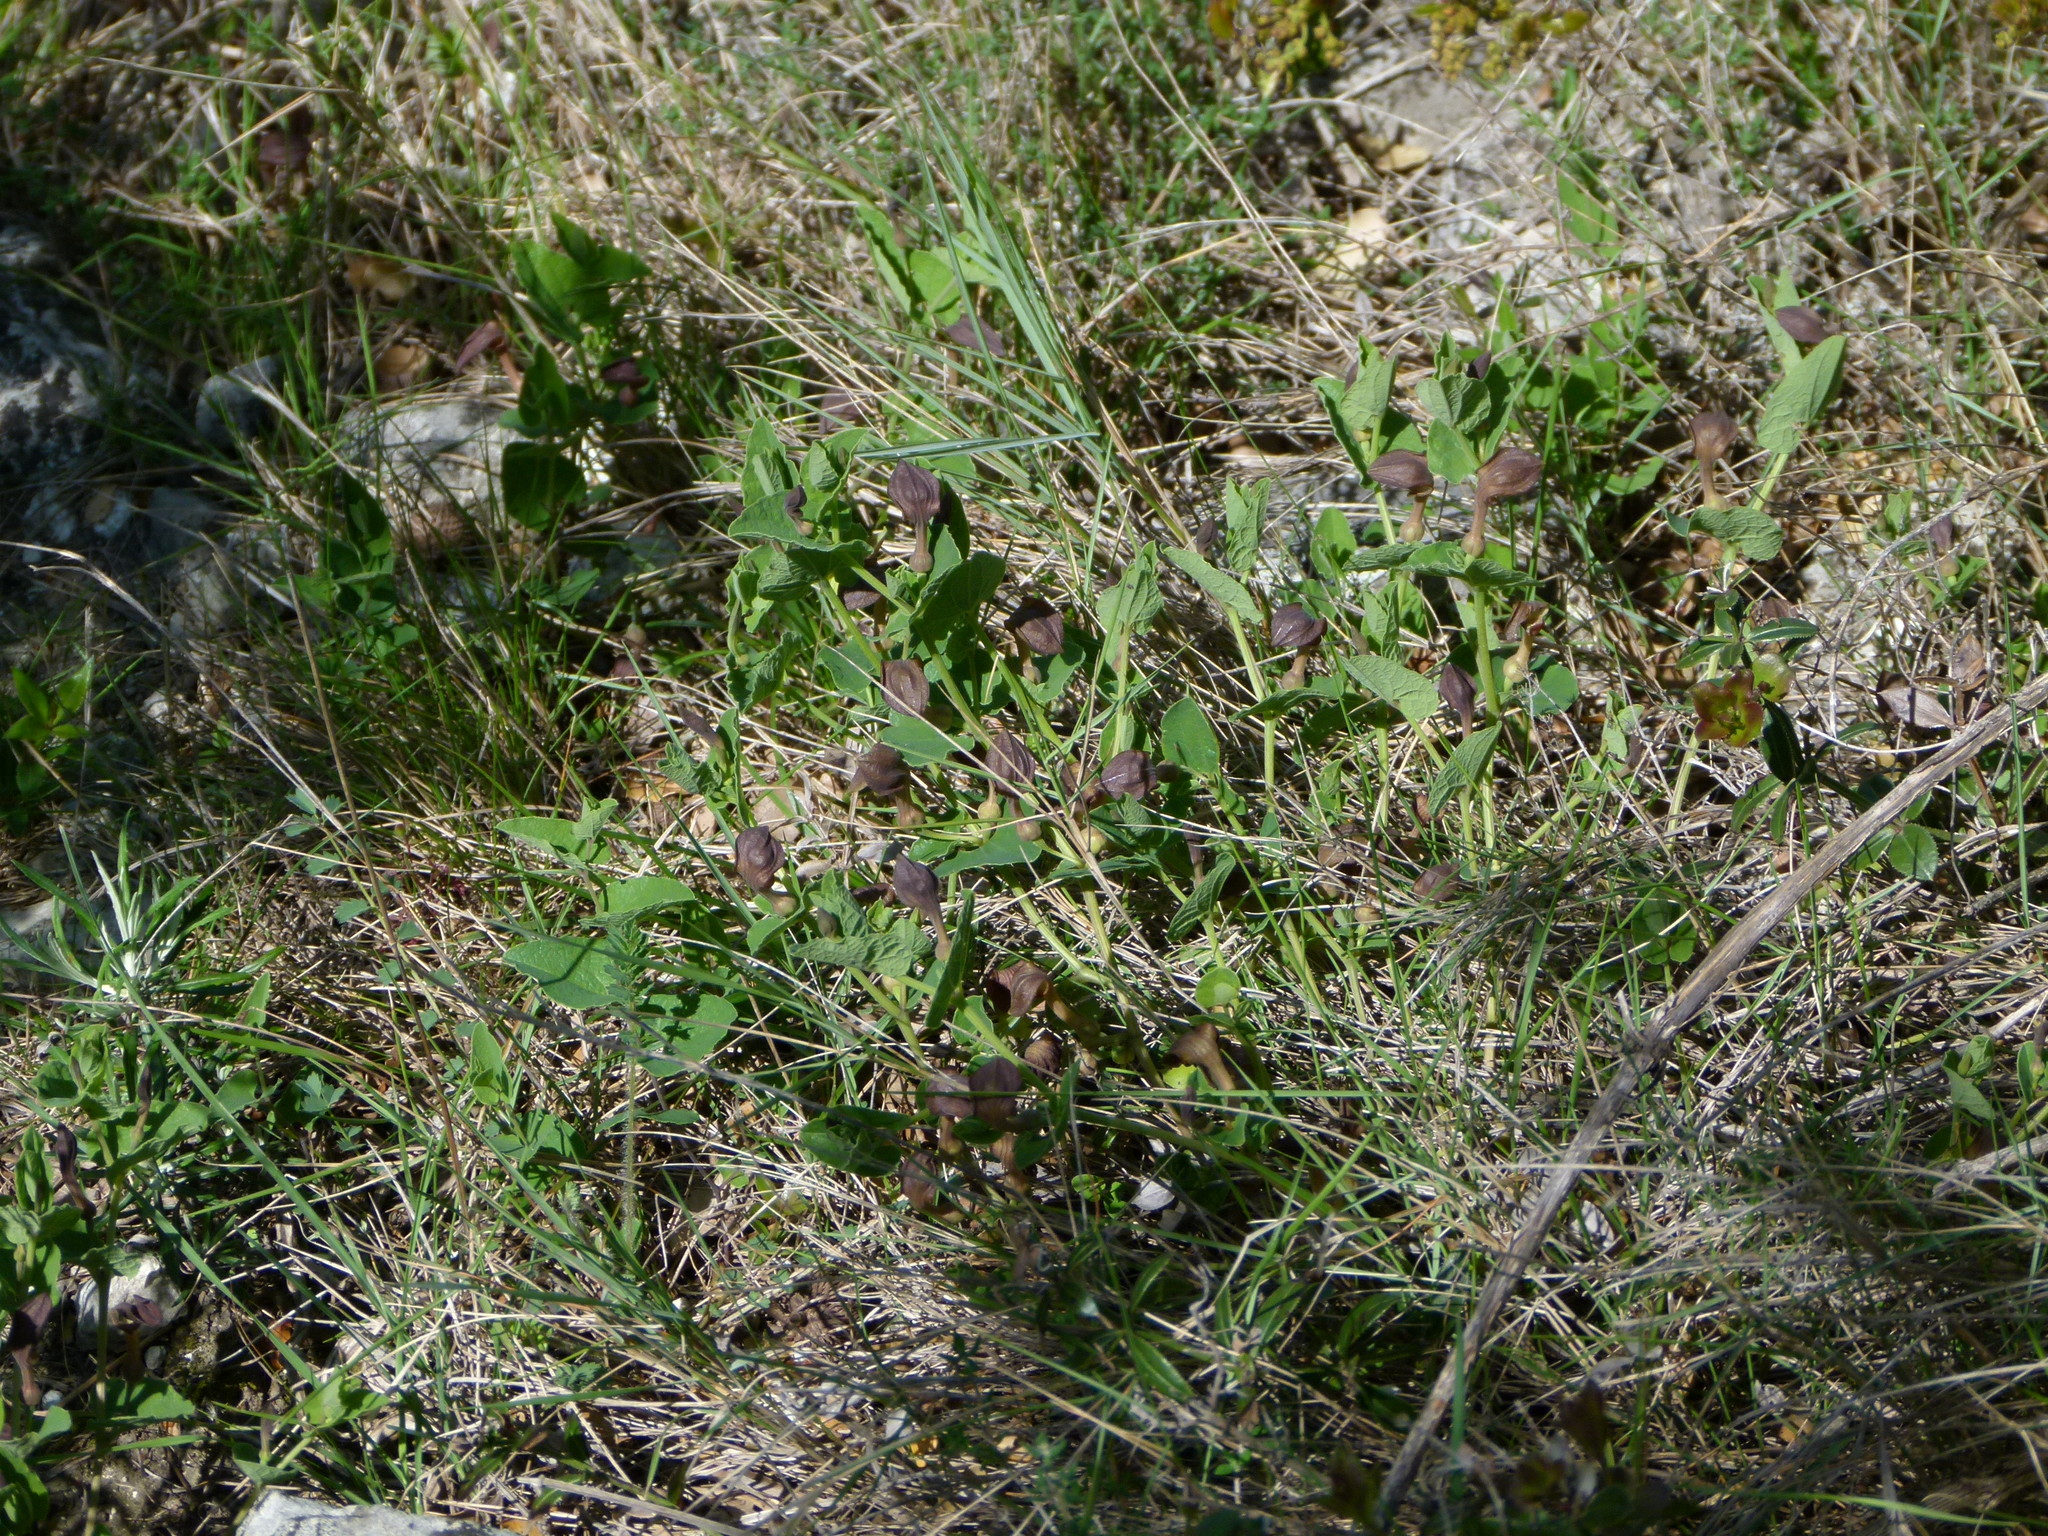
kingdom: Plantae
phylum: Tracheophyta
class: Magnoliopsida
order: Piperales
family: Aristolochiaceae
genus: Aristolochia
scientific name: Aristolochia pistolochia
